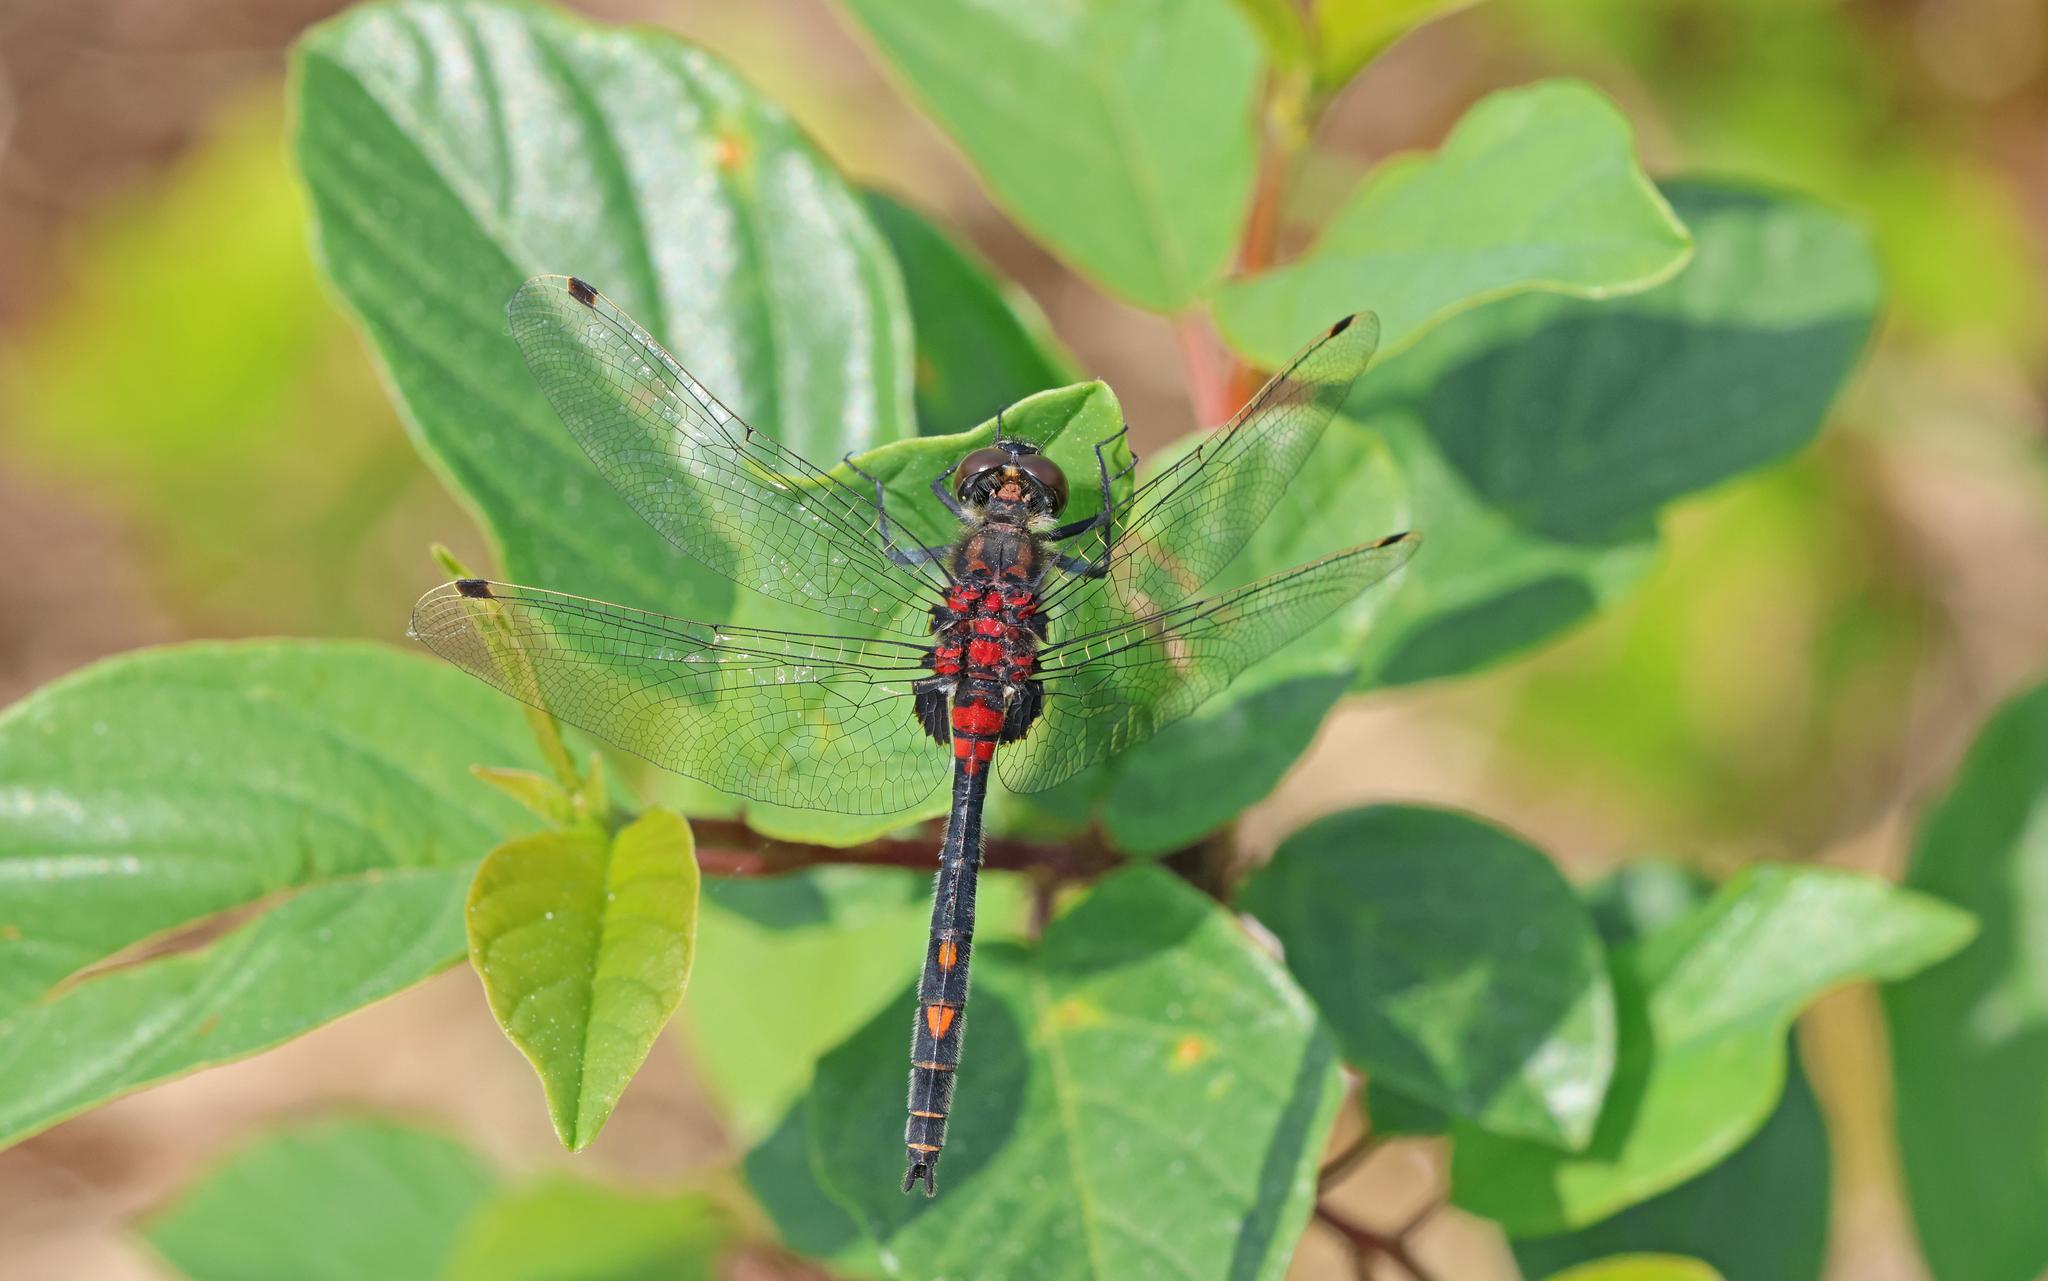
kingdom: Animalia
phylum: Arthropoda
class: Insecta
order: Odonata
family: Libellulidae
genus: Leucorrhinia
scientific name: Leucorrhinia dubia
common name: White-faced darter
